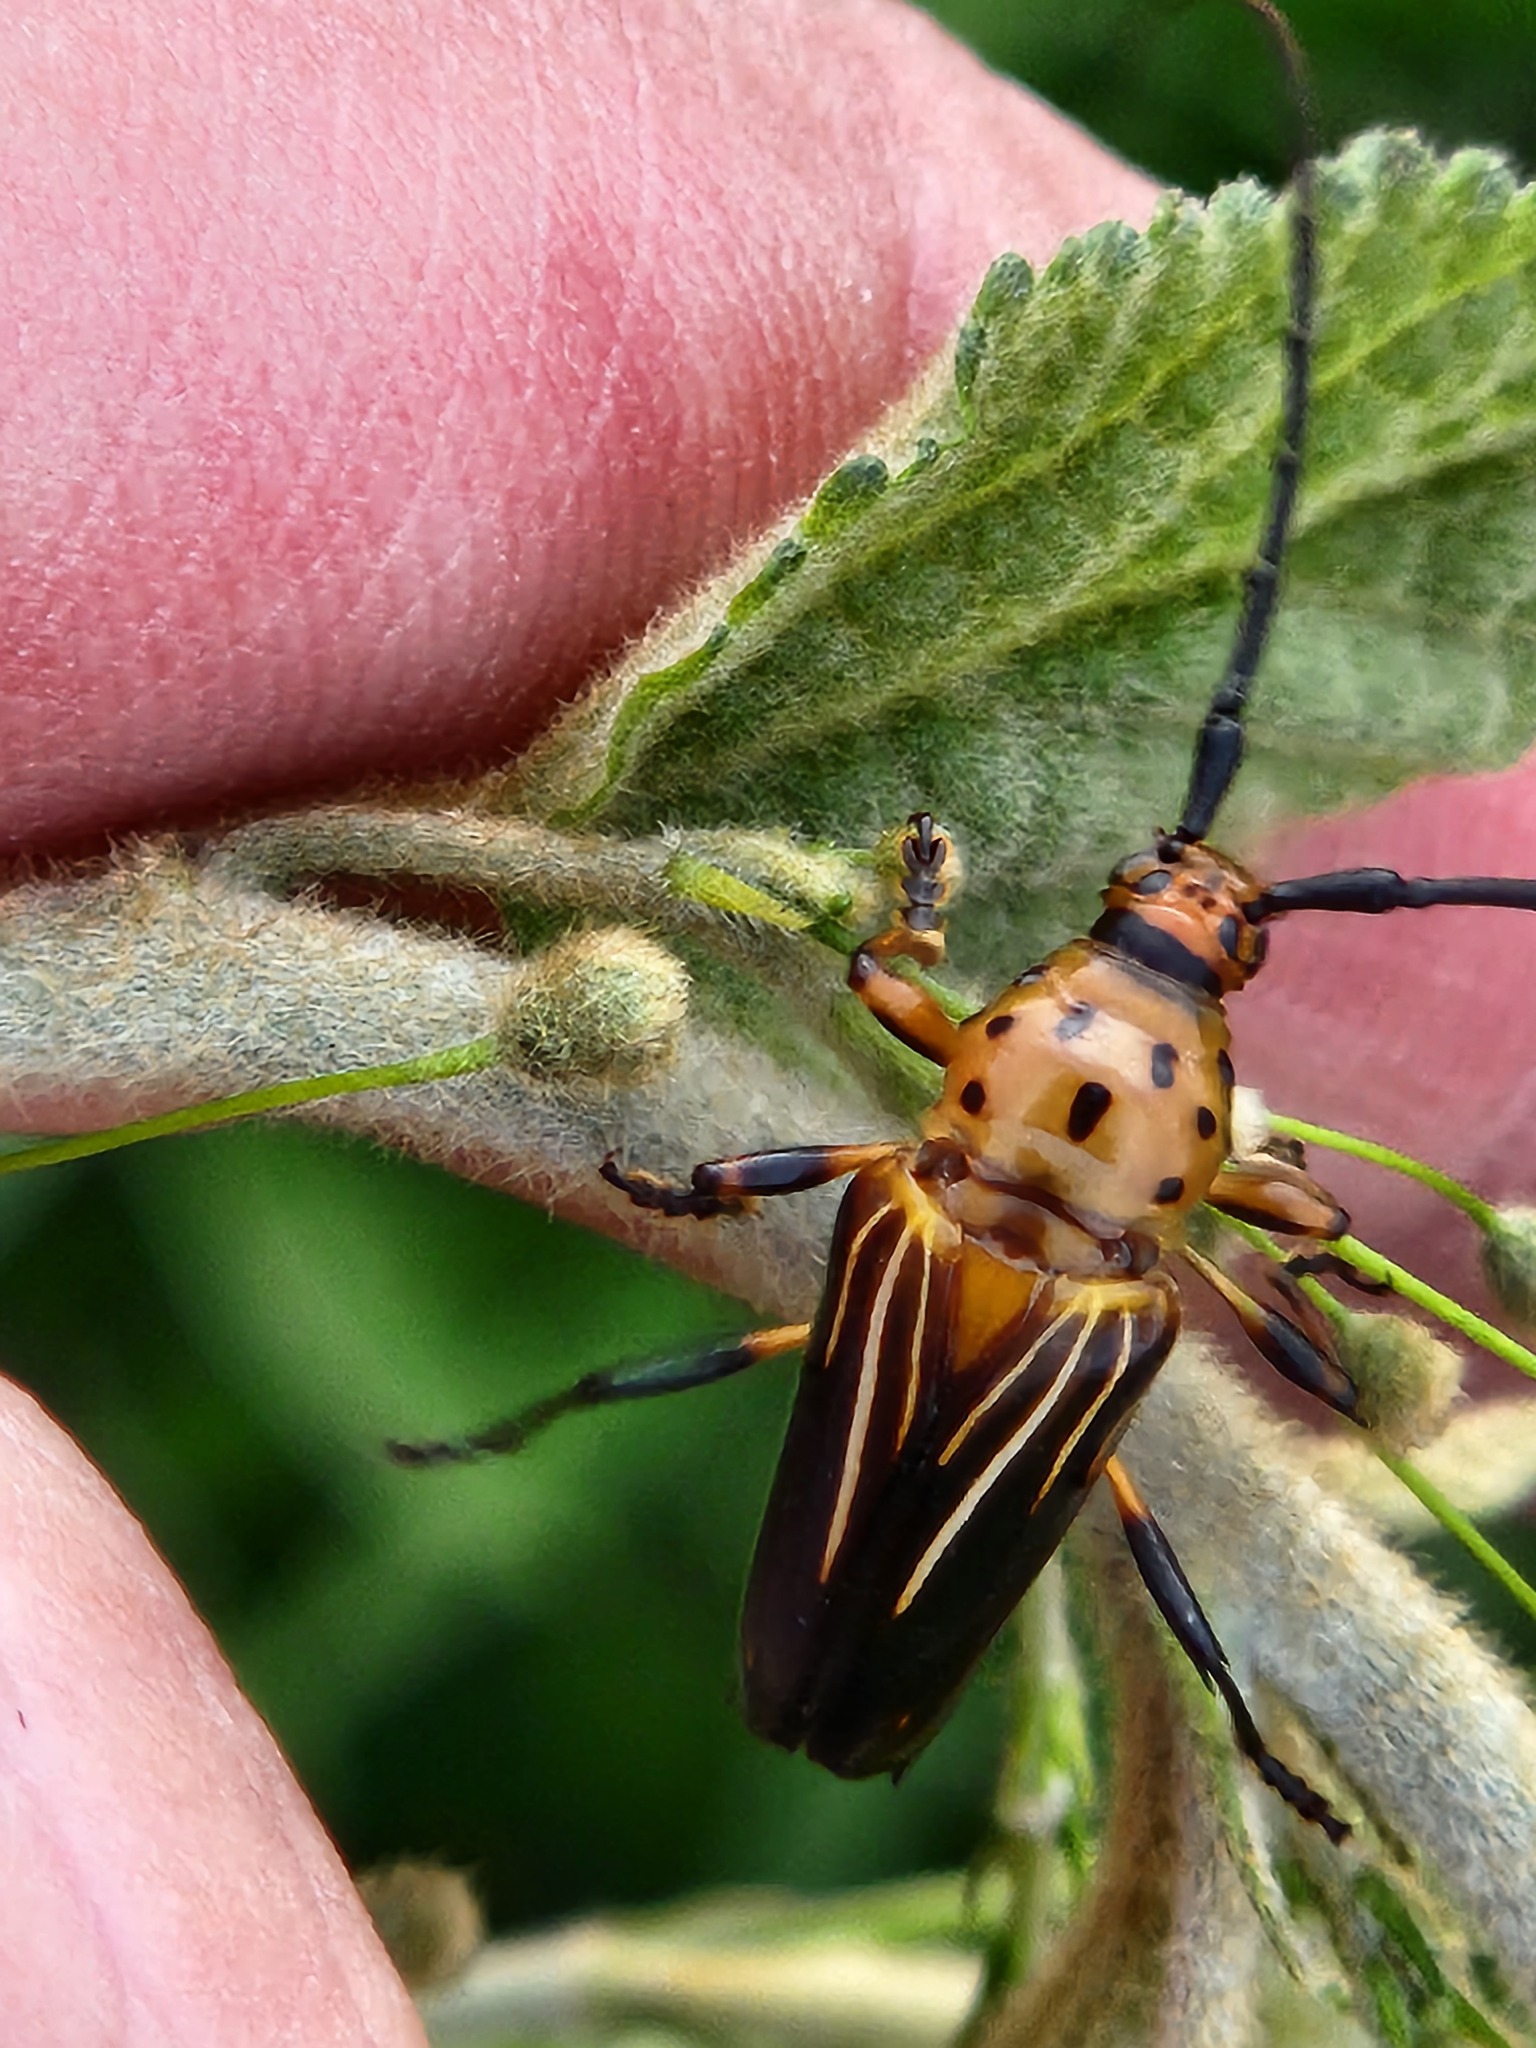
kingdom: Animalia
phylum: Arthropoda
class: Insecta
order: Coleoptera
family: Cerambycidae
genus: Oxymerus
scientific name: Oxymerus aculeatus
